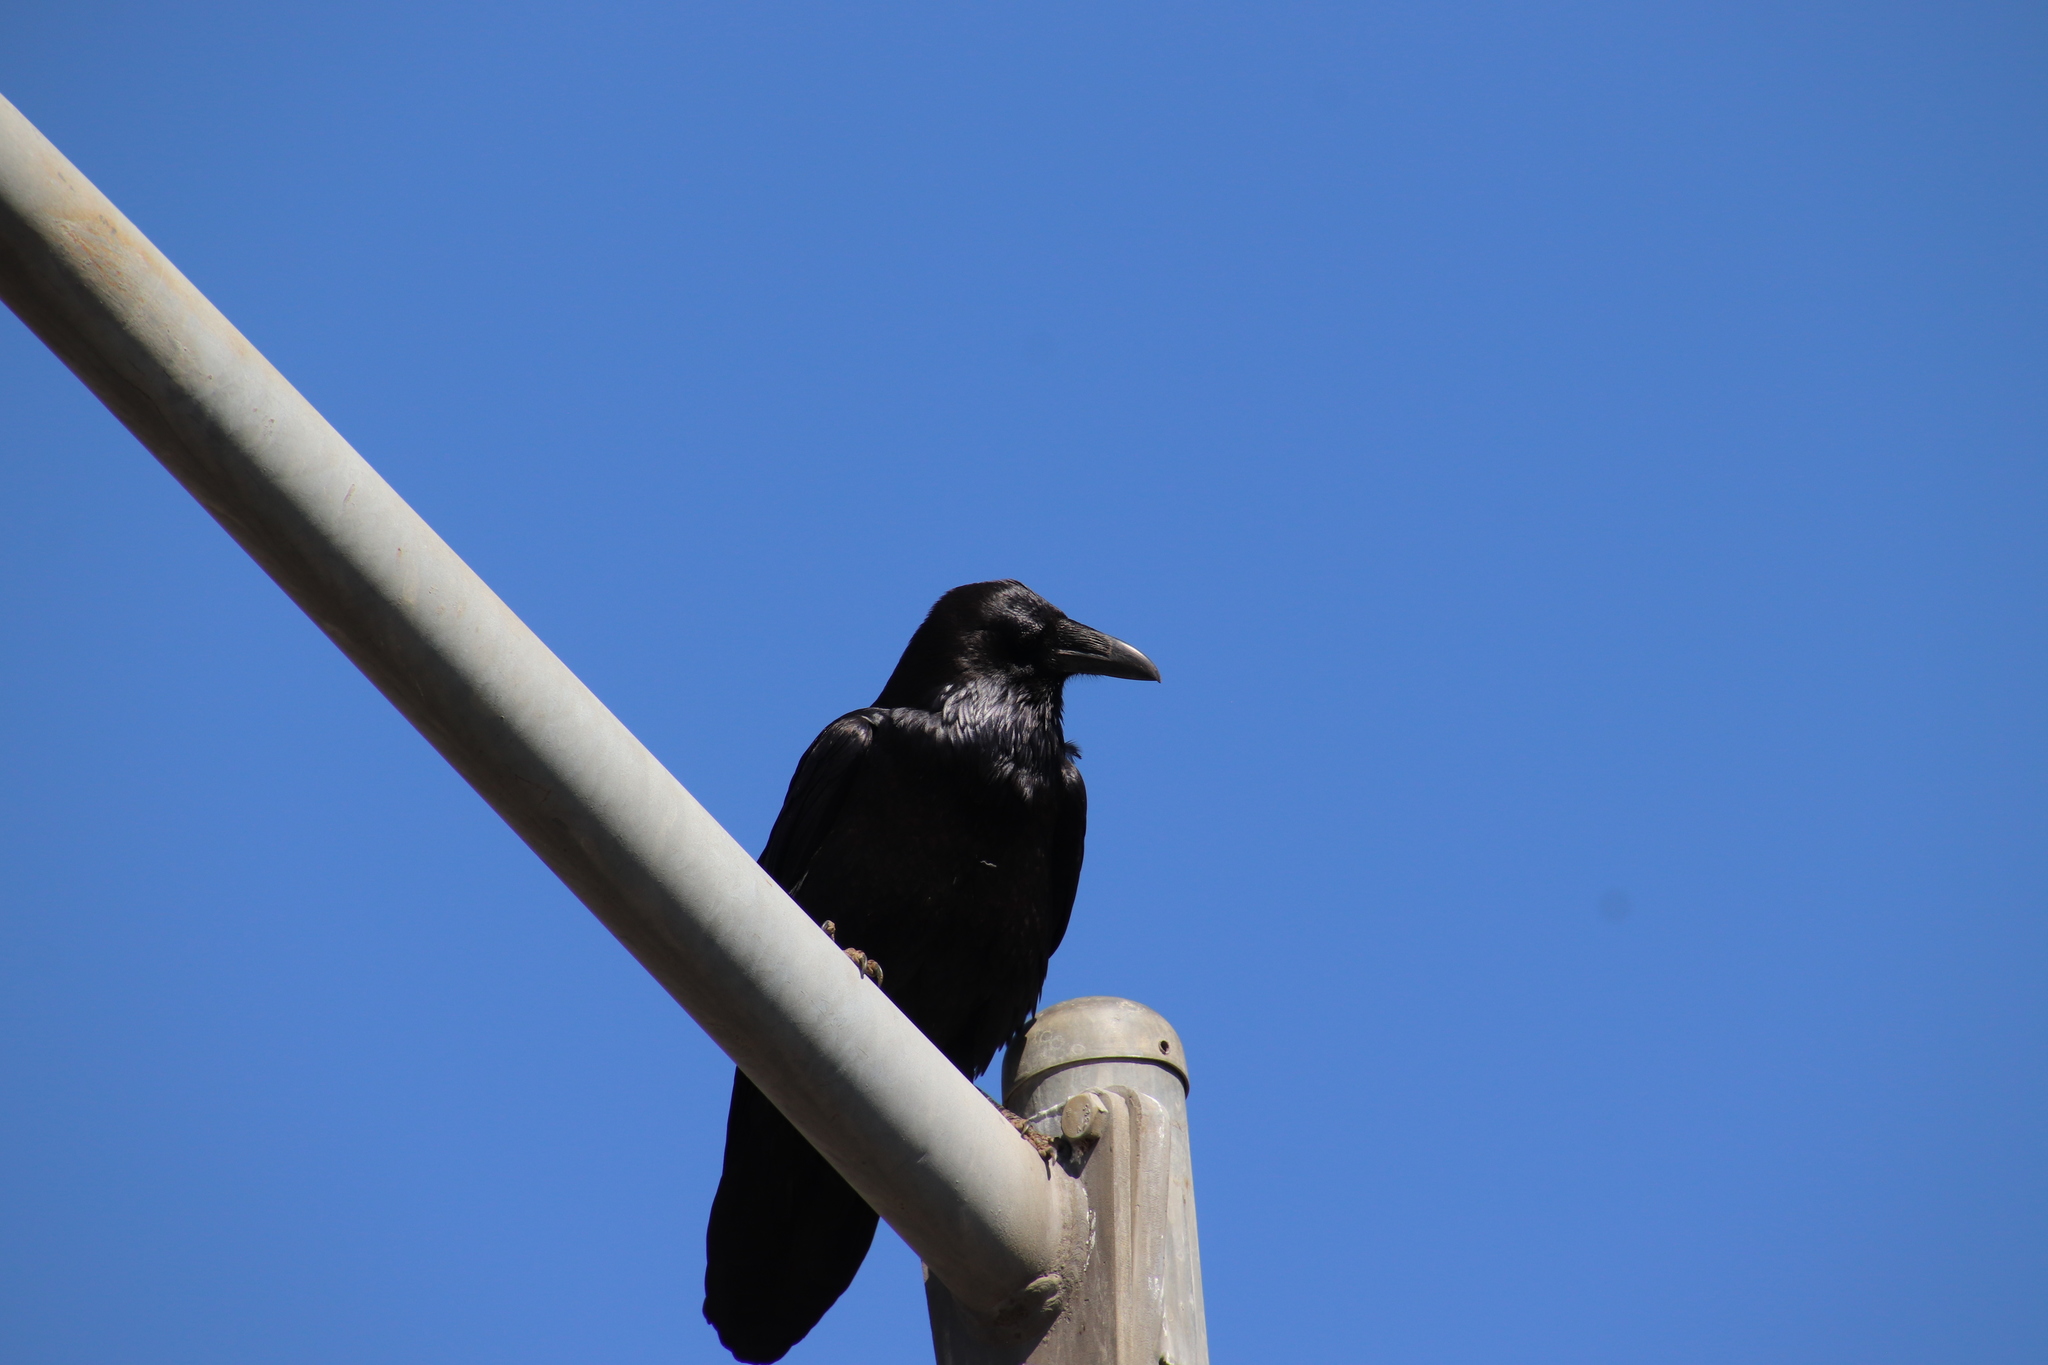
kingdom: Animalia
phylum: Chordata
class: Aves
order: Passeriformes
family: Corvidae
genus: Corvus
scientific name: Corvus corax
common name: Common raven
